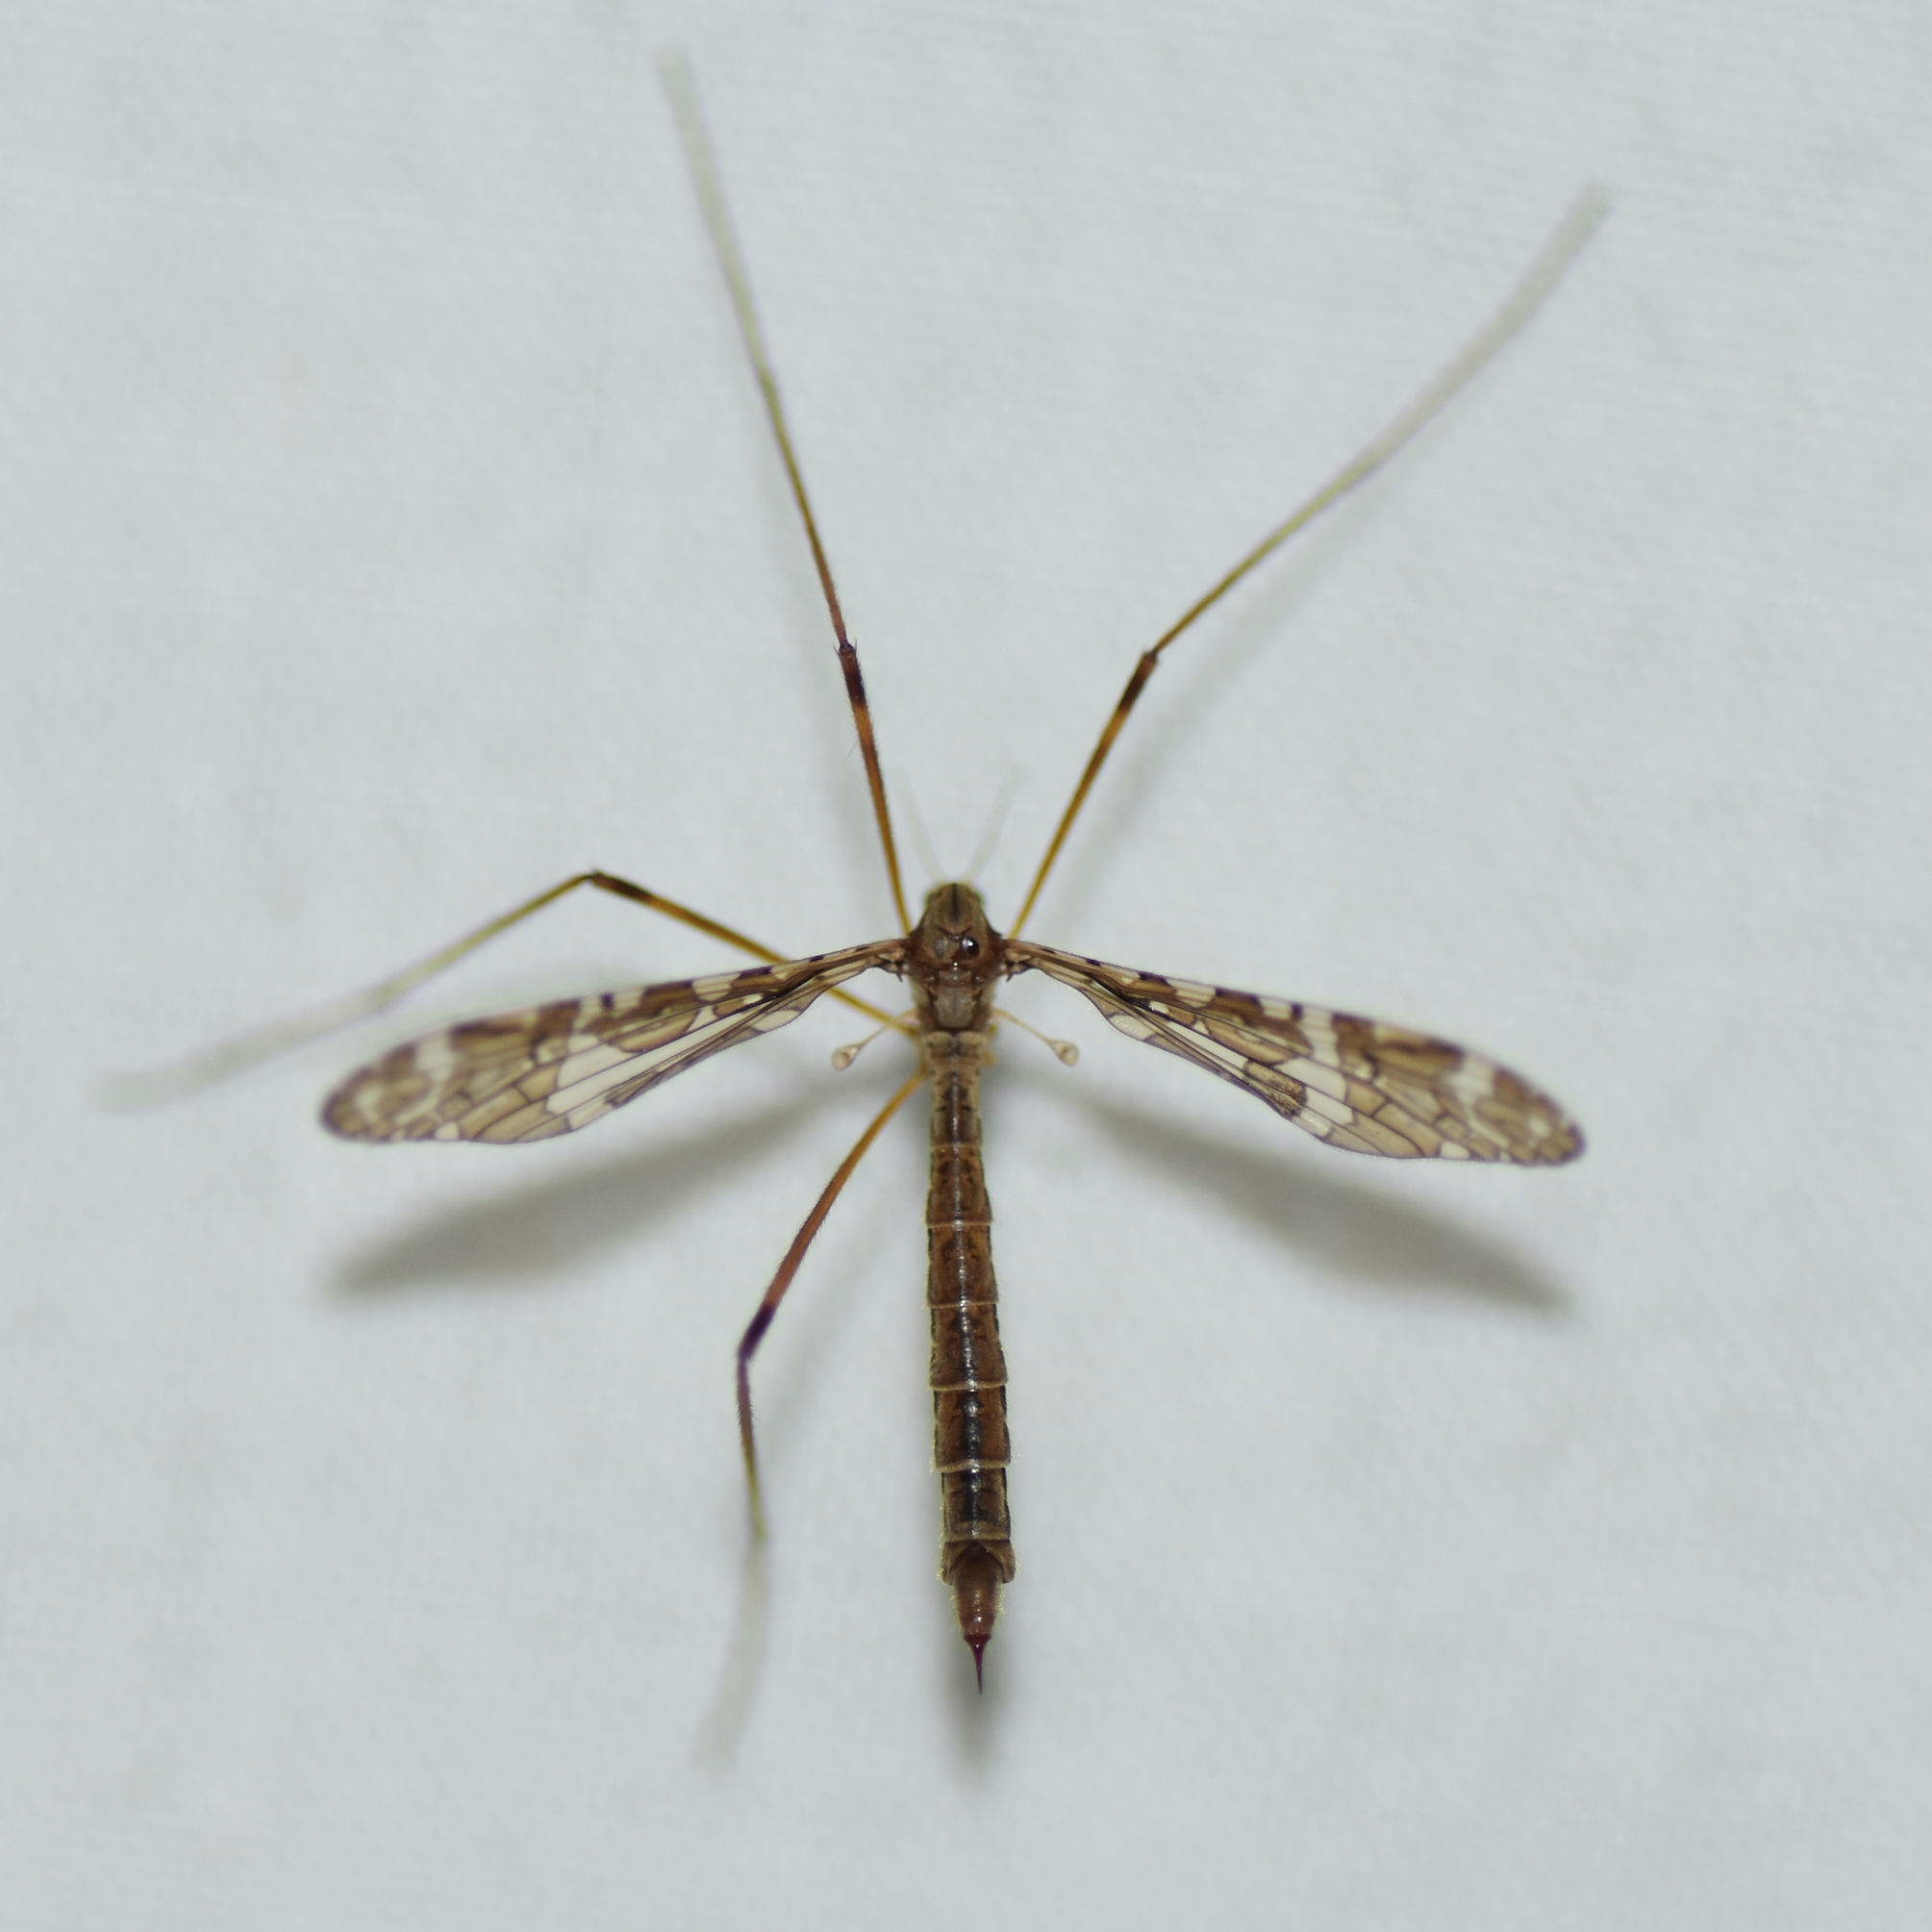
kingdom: Animalia
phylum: Arthropoda
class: Insecta
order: Diptera
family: Limoniidae
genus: Epiphragma
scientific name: Epiphragma fasciapenne
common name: Band-winged crane fly
